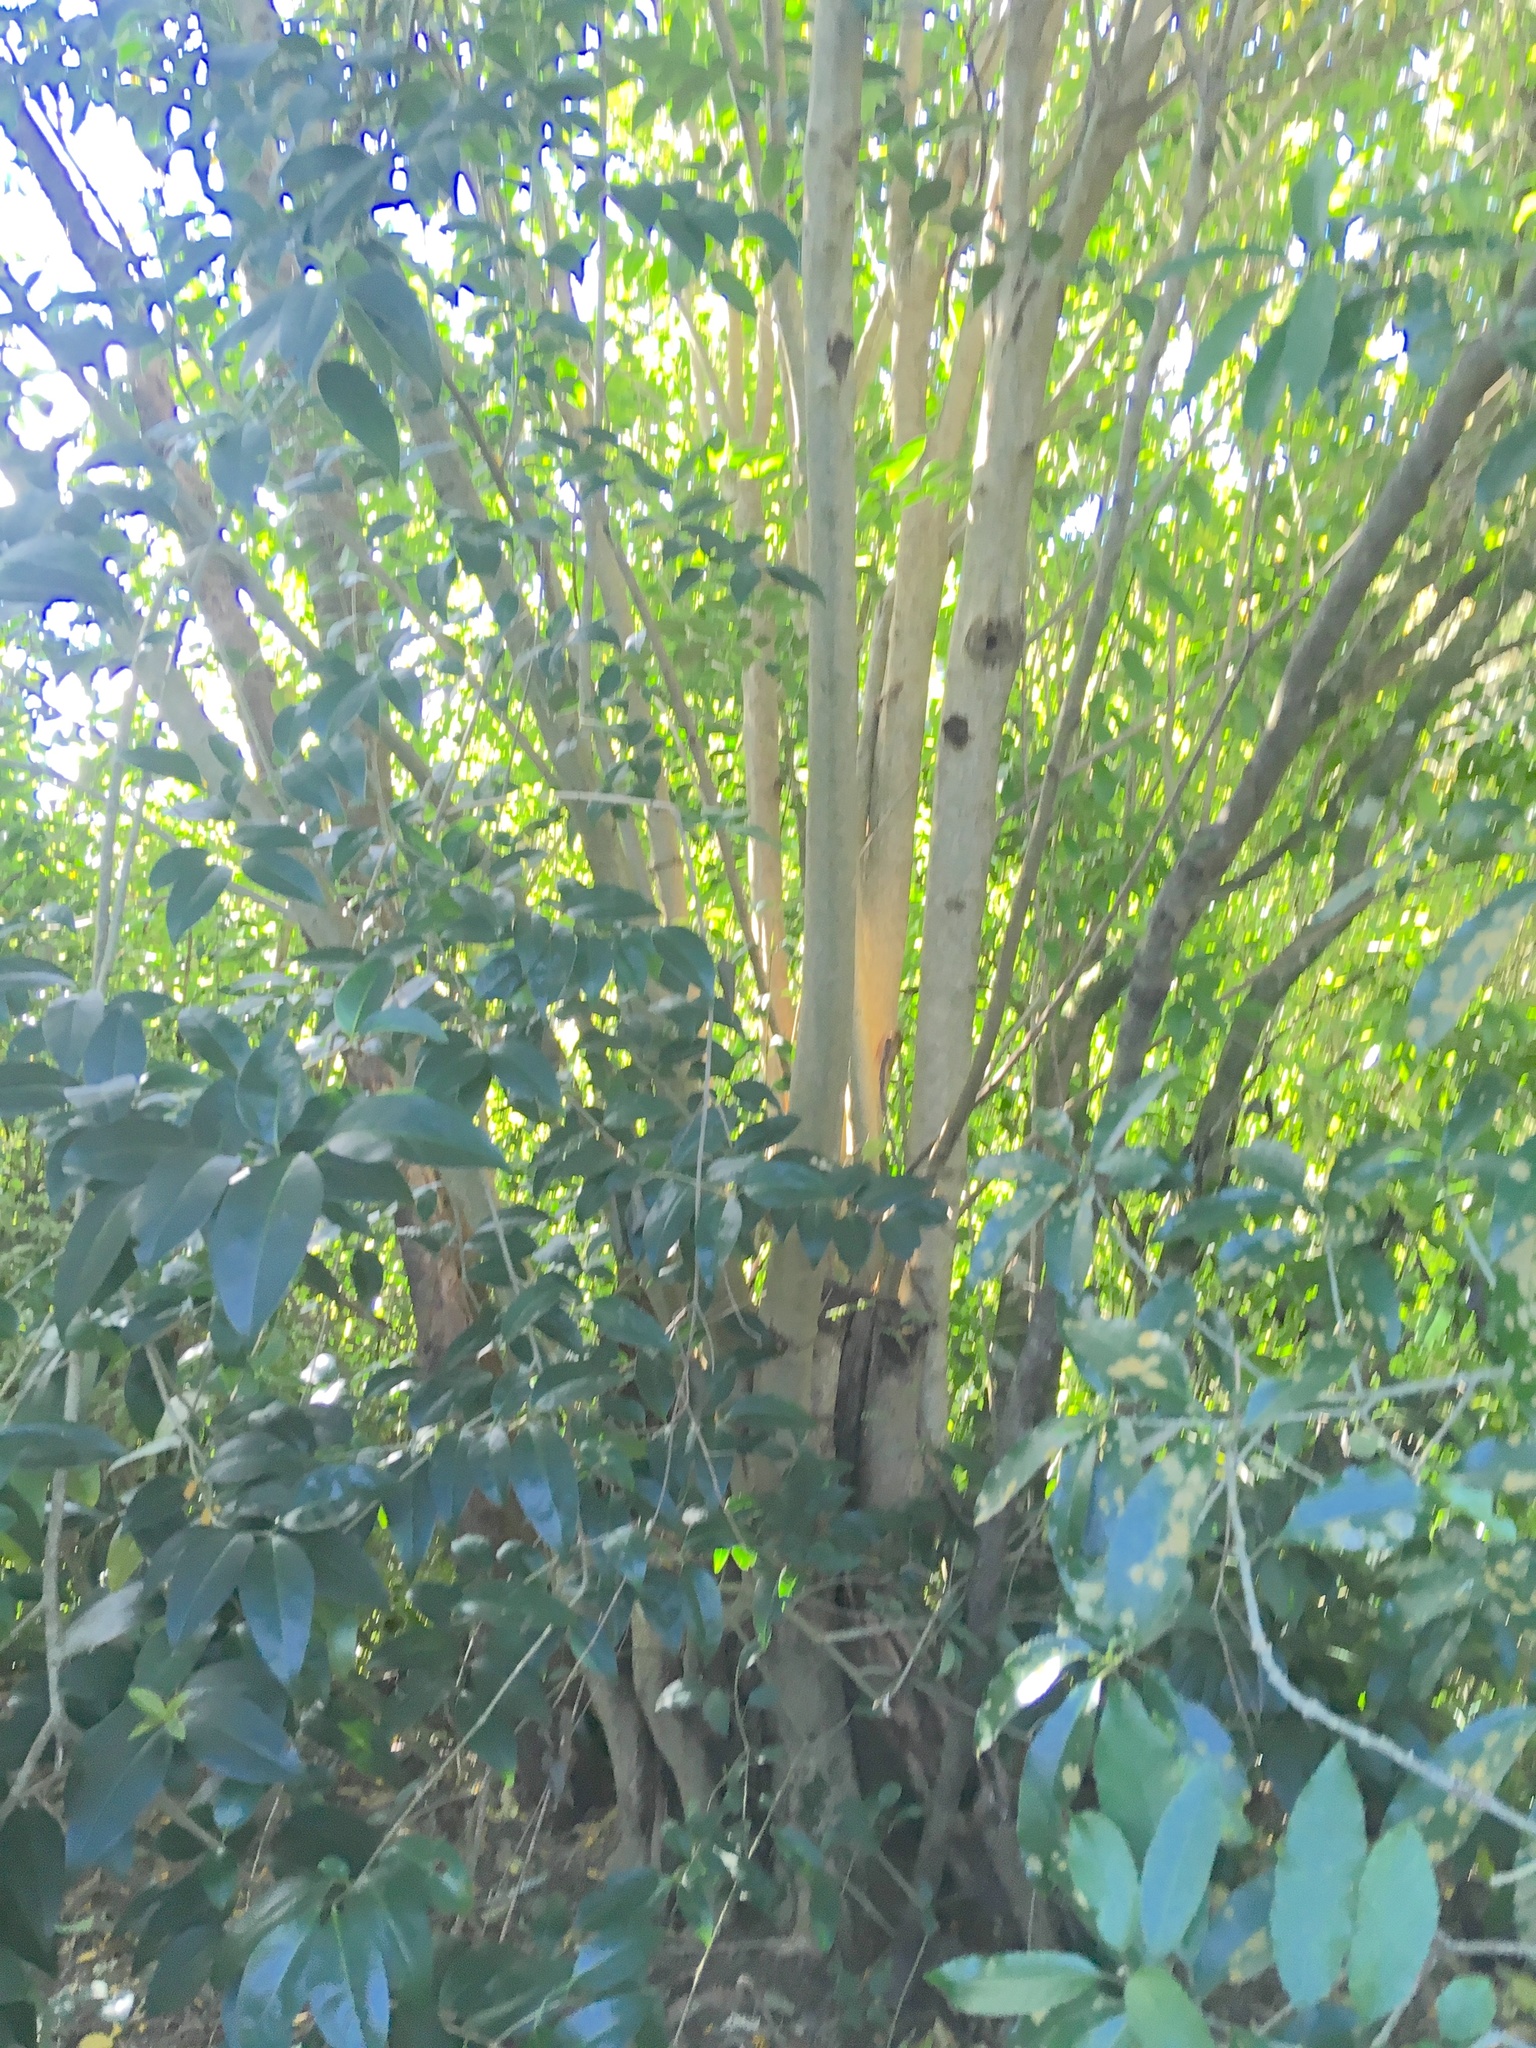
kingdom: Plantae
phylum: Tracheophyta
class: Magnoliopsida
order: Lamiales
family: Oleaceae
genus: Ligustrum
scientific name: Ligustrum lucidum
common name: Glossy privet
